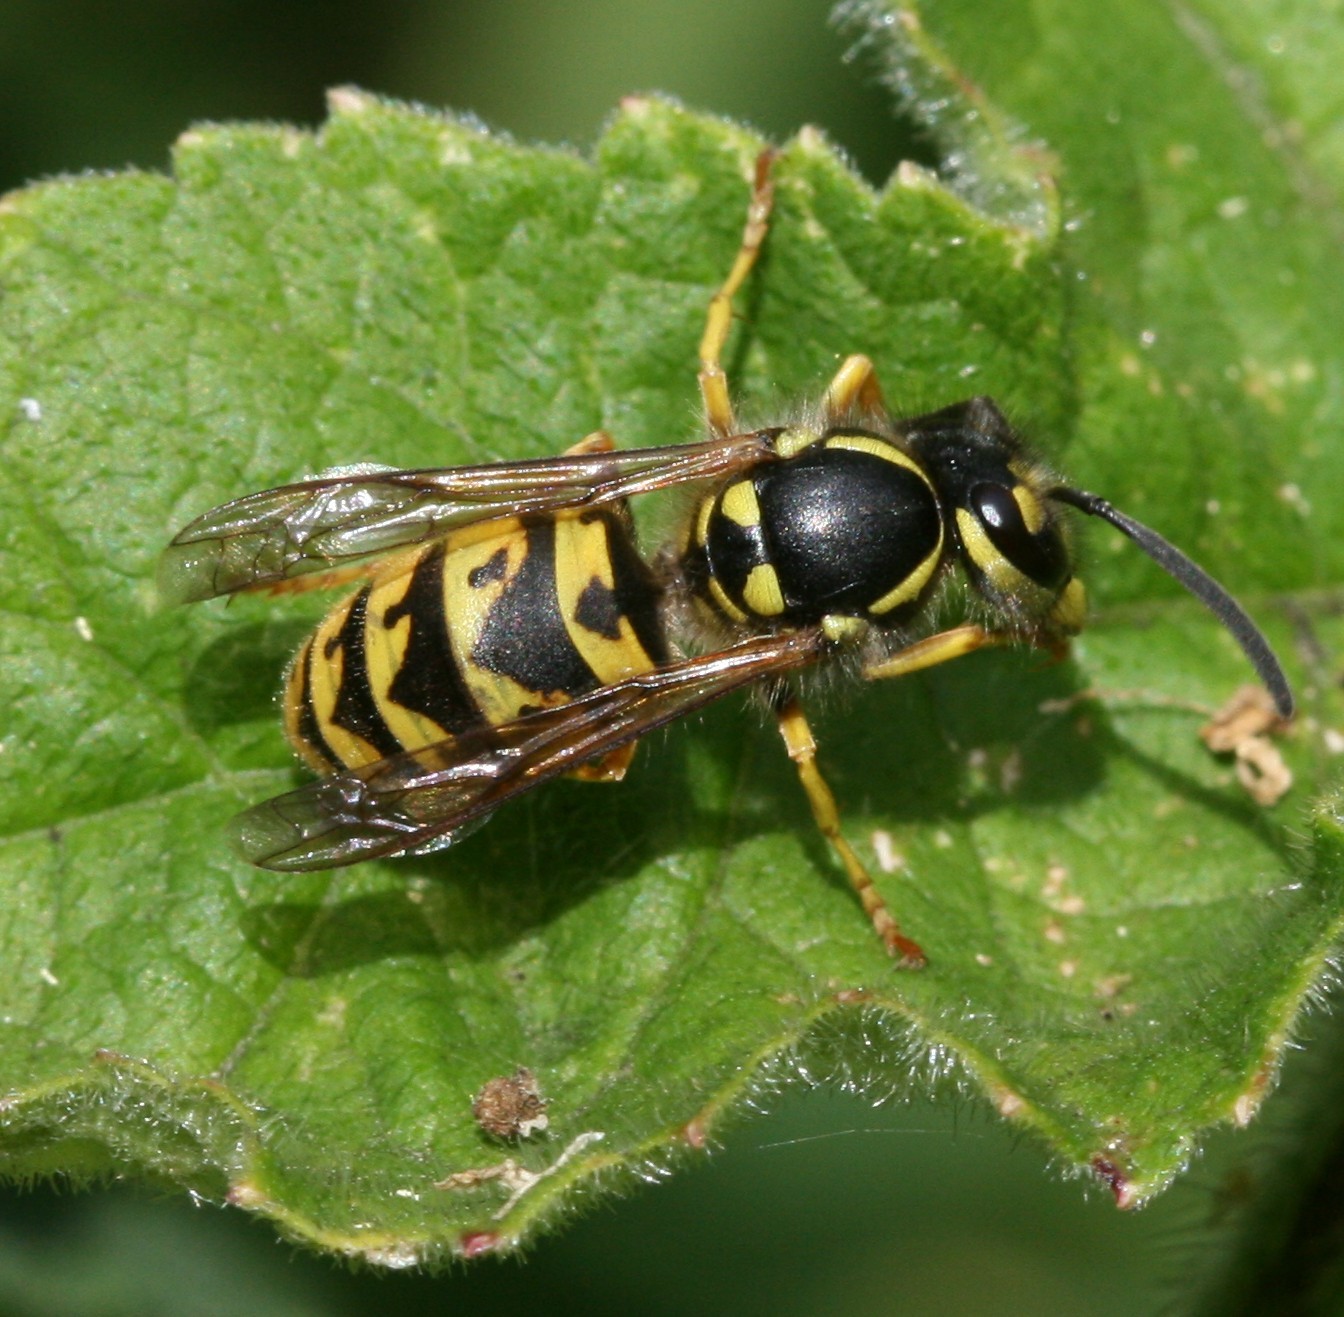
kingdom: Animalia
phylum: Arthropoda
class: Insecta
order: Hymenoptera
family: Vespidae
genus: Vespula
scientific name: Vespula germanica
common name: German wasp
